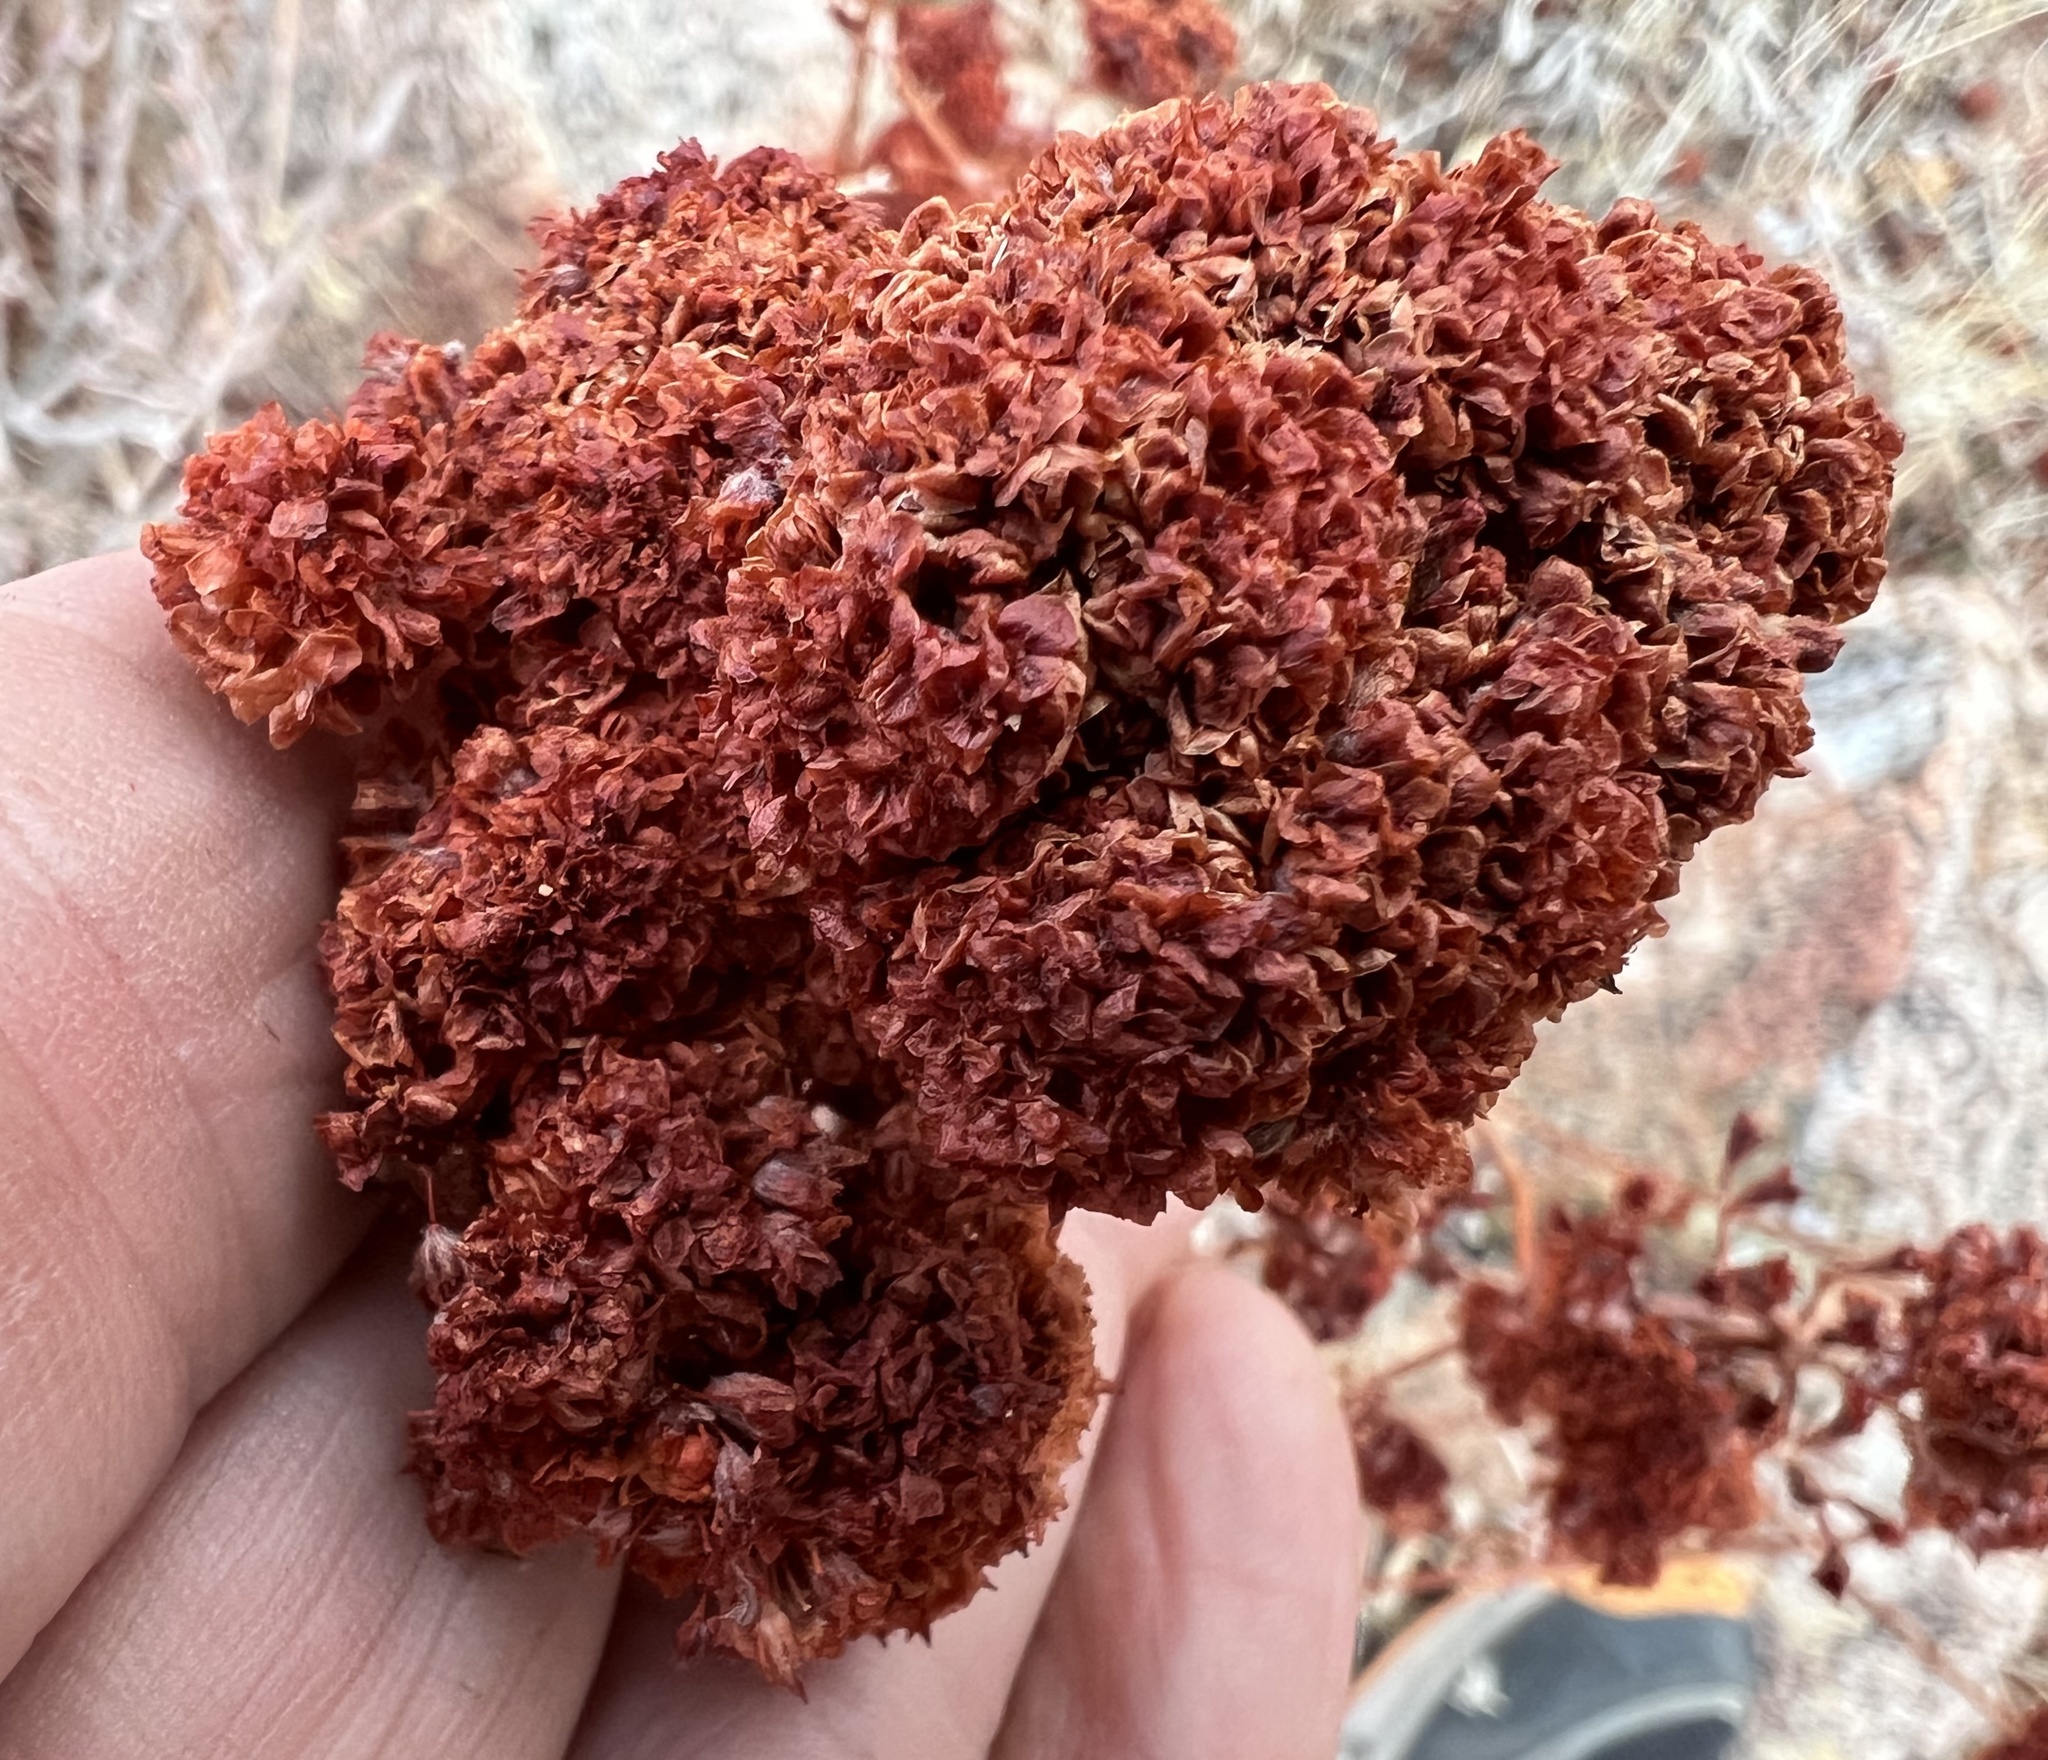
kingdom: Plantae
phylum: Tracheophyta
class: Magnoliopsida
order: Caryophyllales
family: Polygonaceae
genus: Eriogonum
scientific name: Eriogonum fasciculatum
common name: California wild buckwheat
